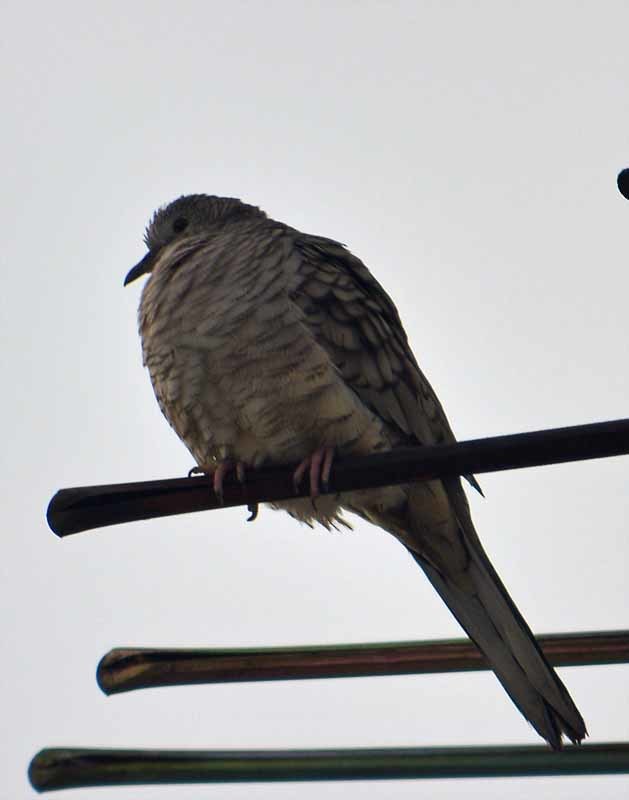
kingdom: Animalia
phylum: Chordata
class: Aves
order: Columbiformes
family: Columbidae
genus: Columbina
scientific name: Columbina inca
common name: Inca dove
